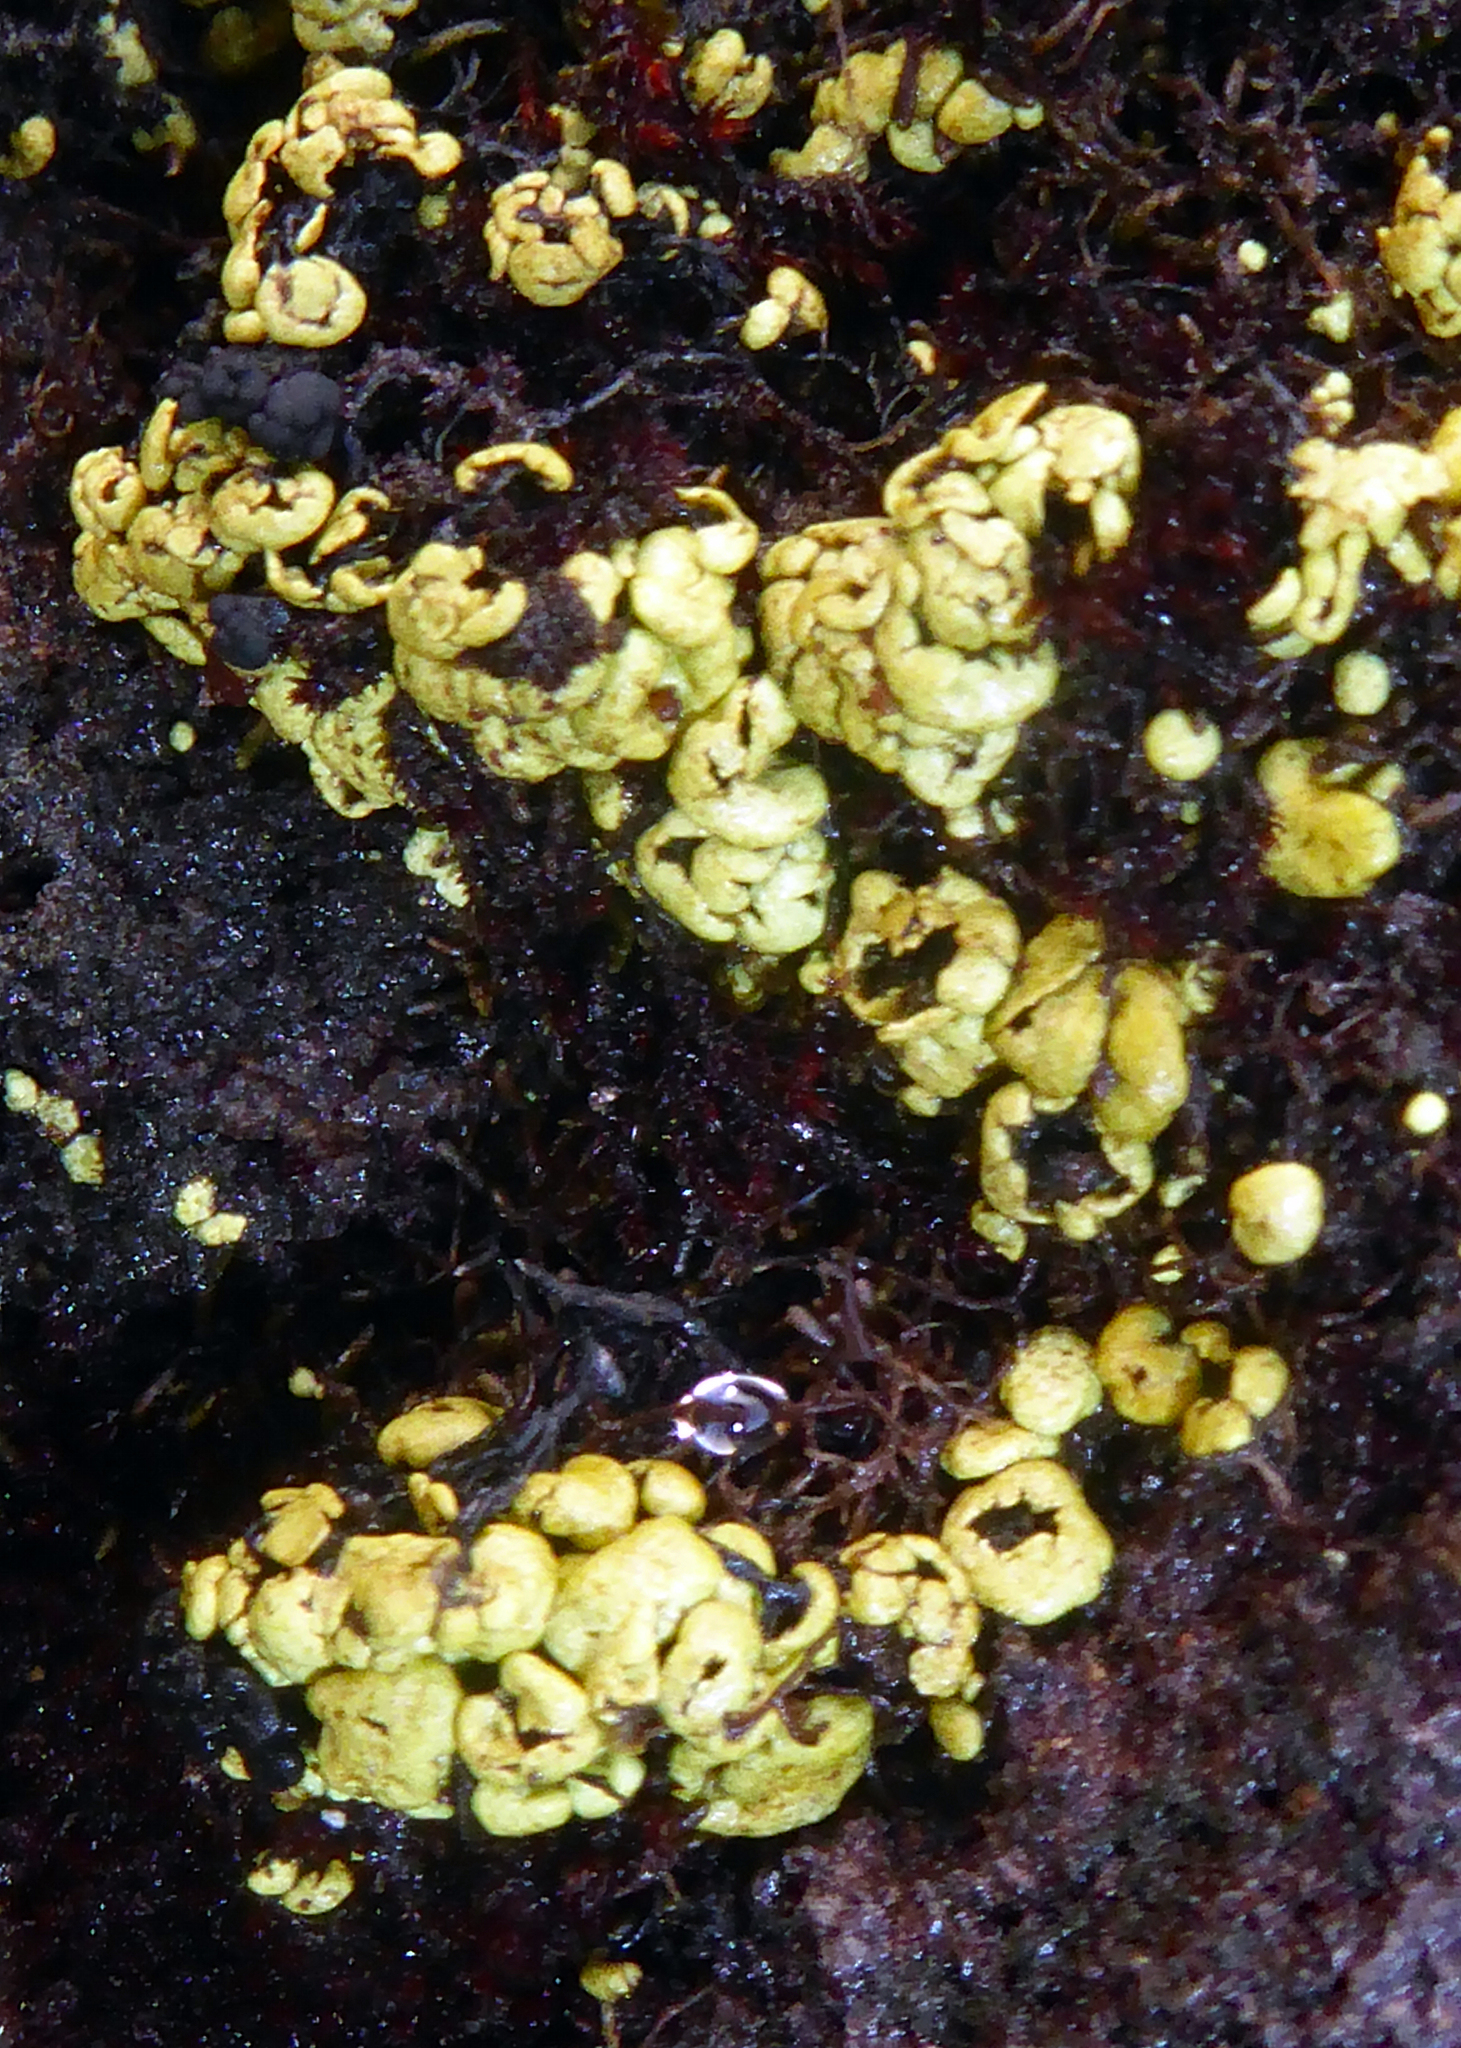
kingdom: Fungi
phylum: Ascomycota
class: Lecanoromycetes
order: Umbilicariales
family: Arthrorhaphidaceae
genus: Arthrorhaphis
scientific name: Arthrorhaphis alpina
